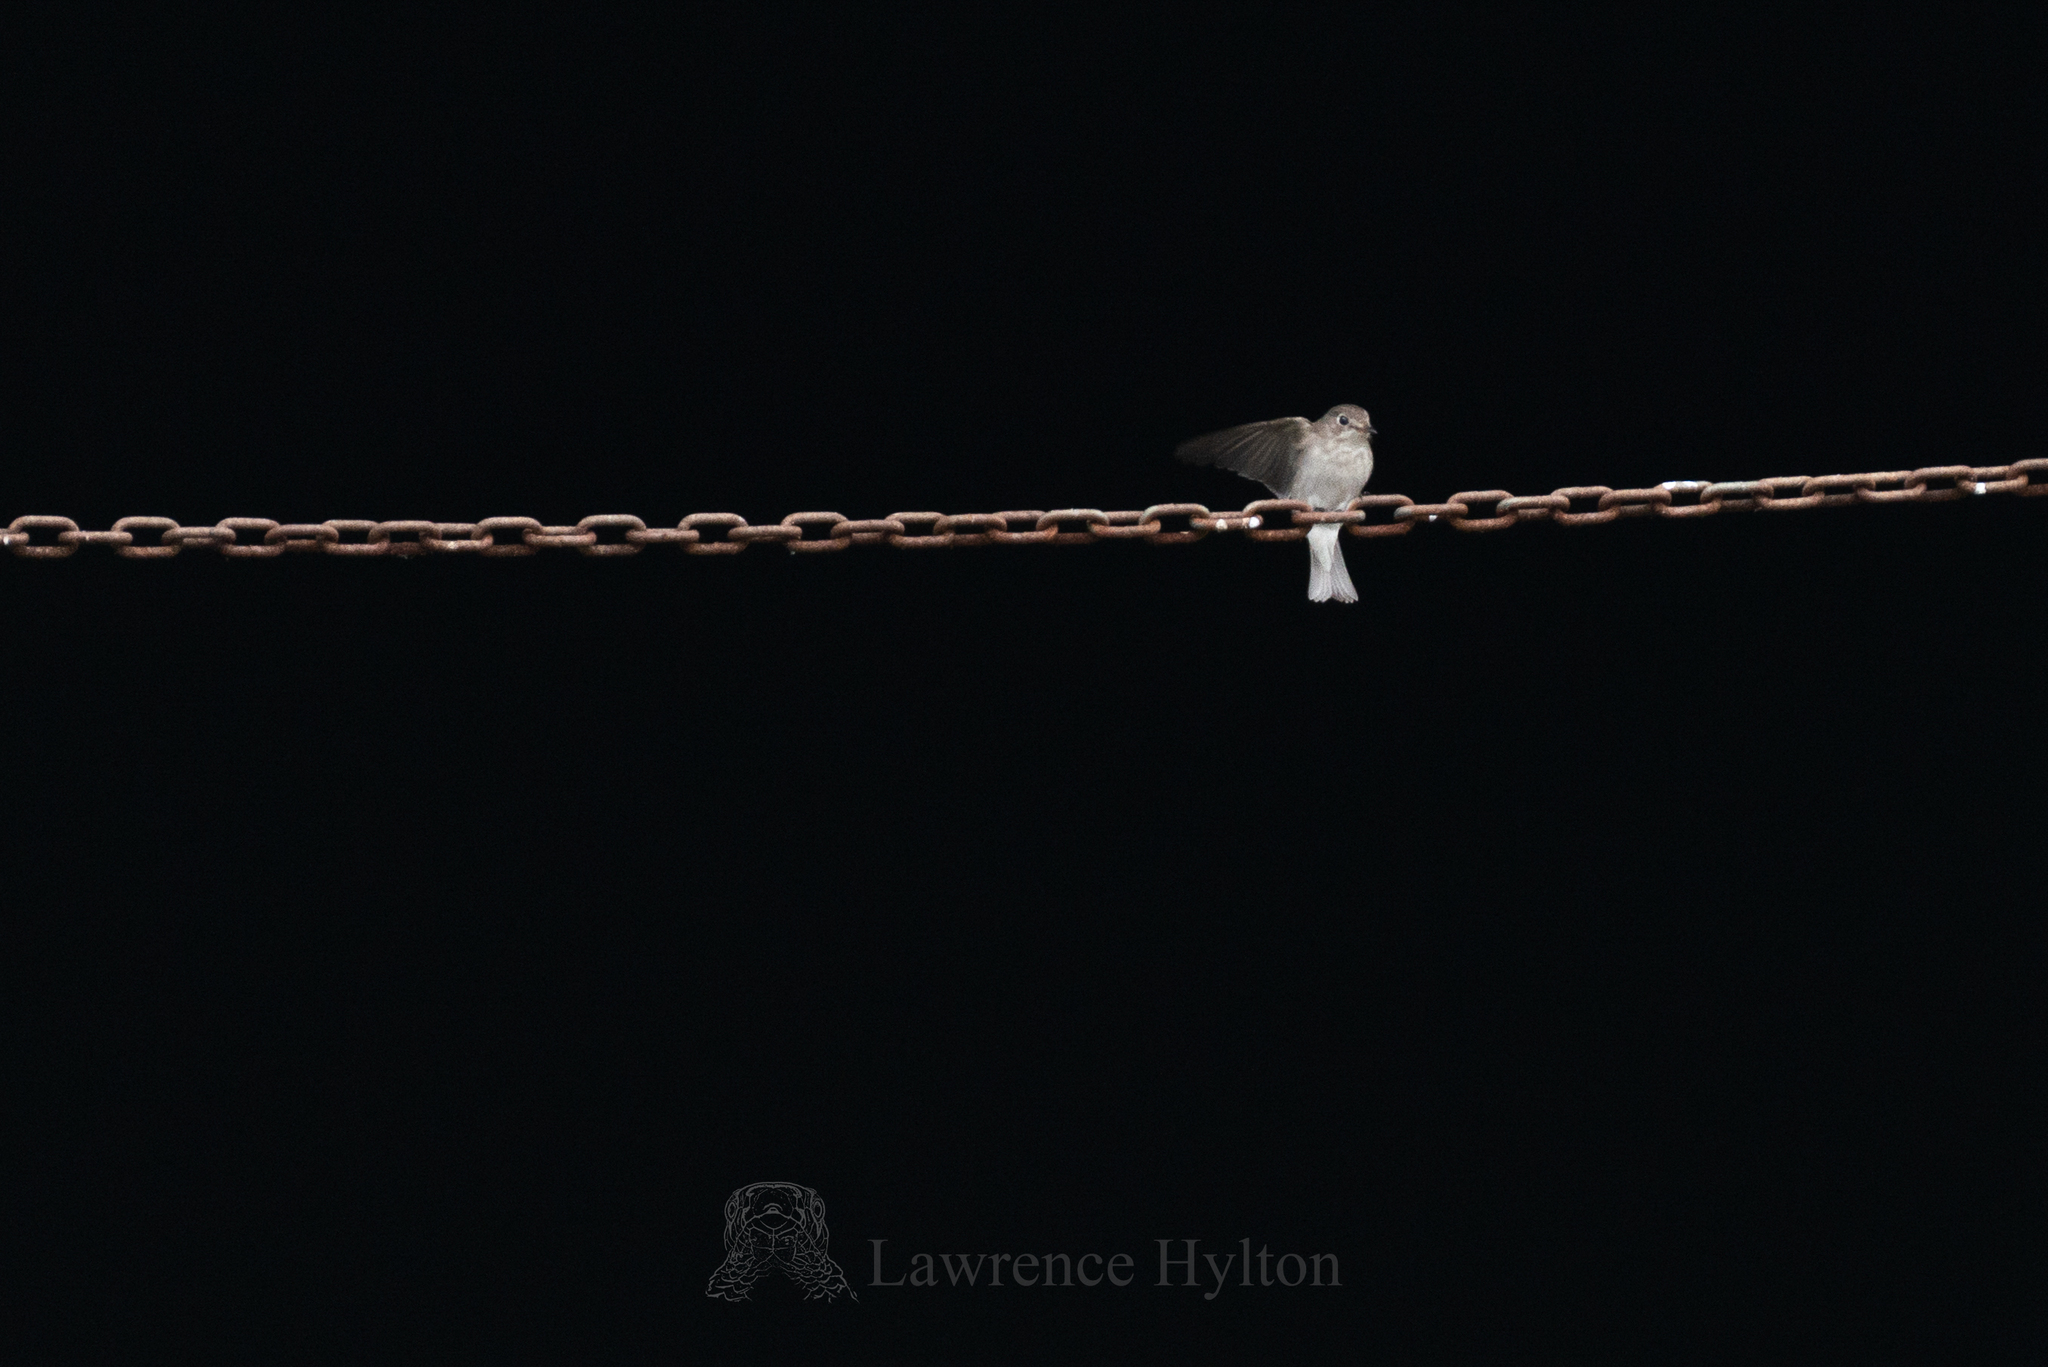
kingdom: Animalia
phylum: Chordata
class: Aves
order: Passeriformes
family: Muscicapidae
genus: Muscicapa
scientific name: Muscicapa latirostris
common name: Asian brown flycatcher
